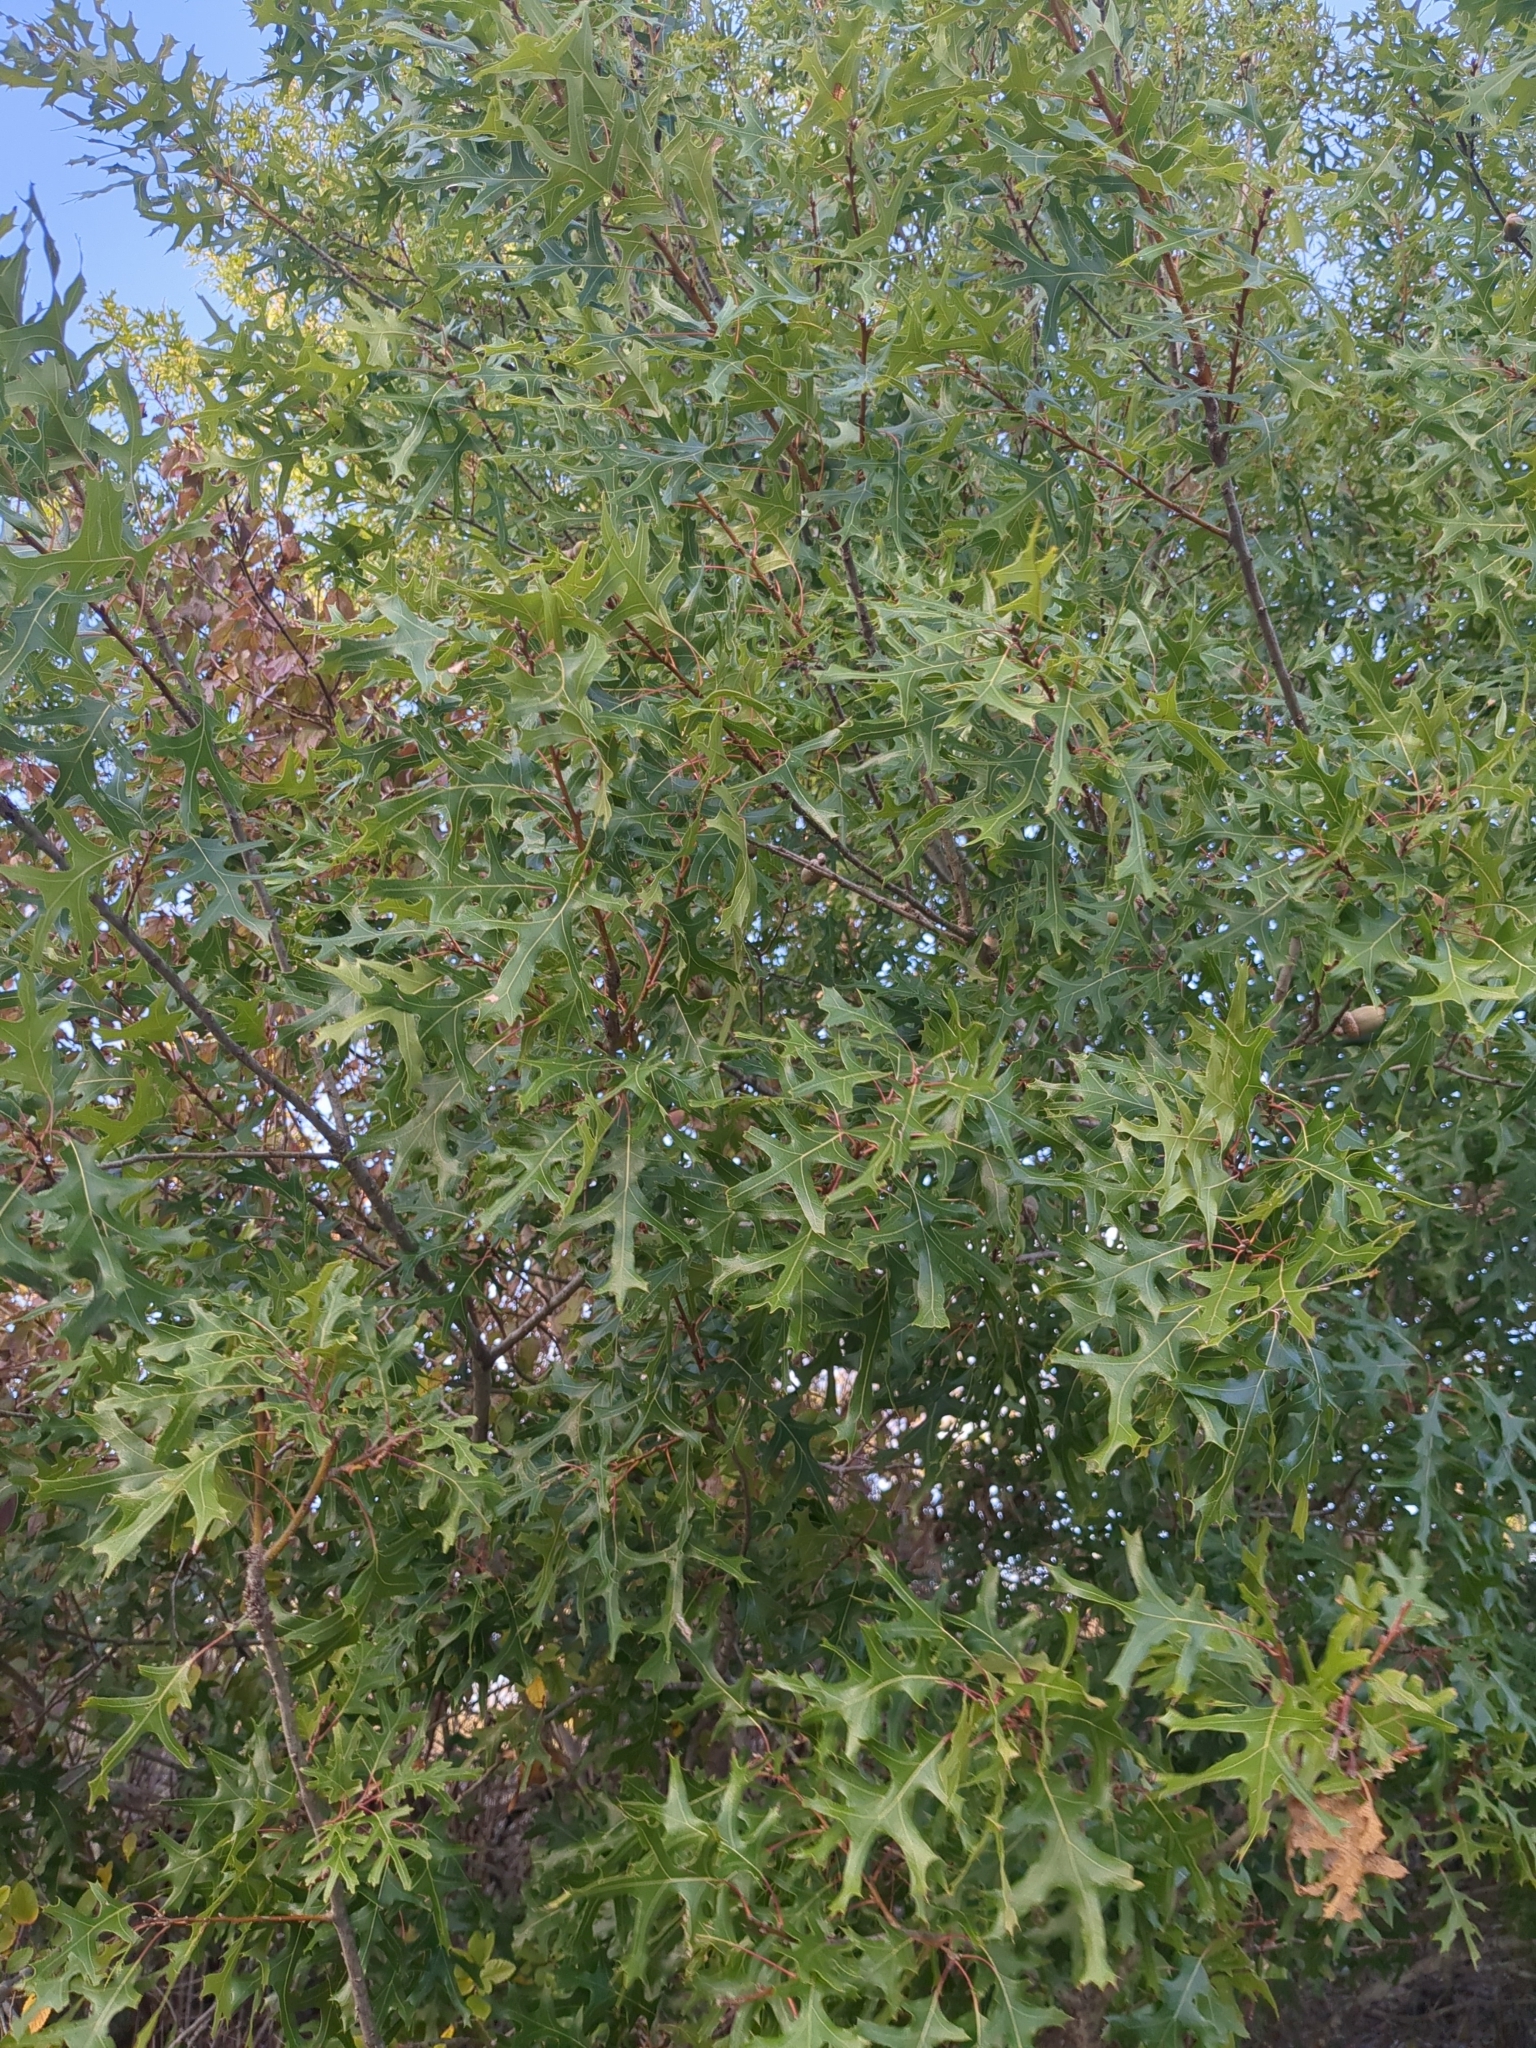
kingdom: Plantae
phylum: Tracheophyta
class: Magnoliopsida
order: Fagales
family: Fagaceae
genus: Quercus
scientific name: Quercus buckleyi
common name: Buckley oak
